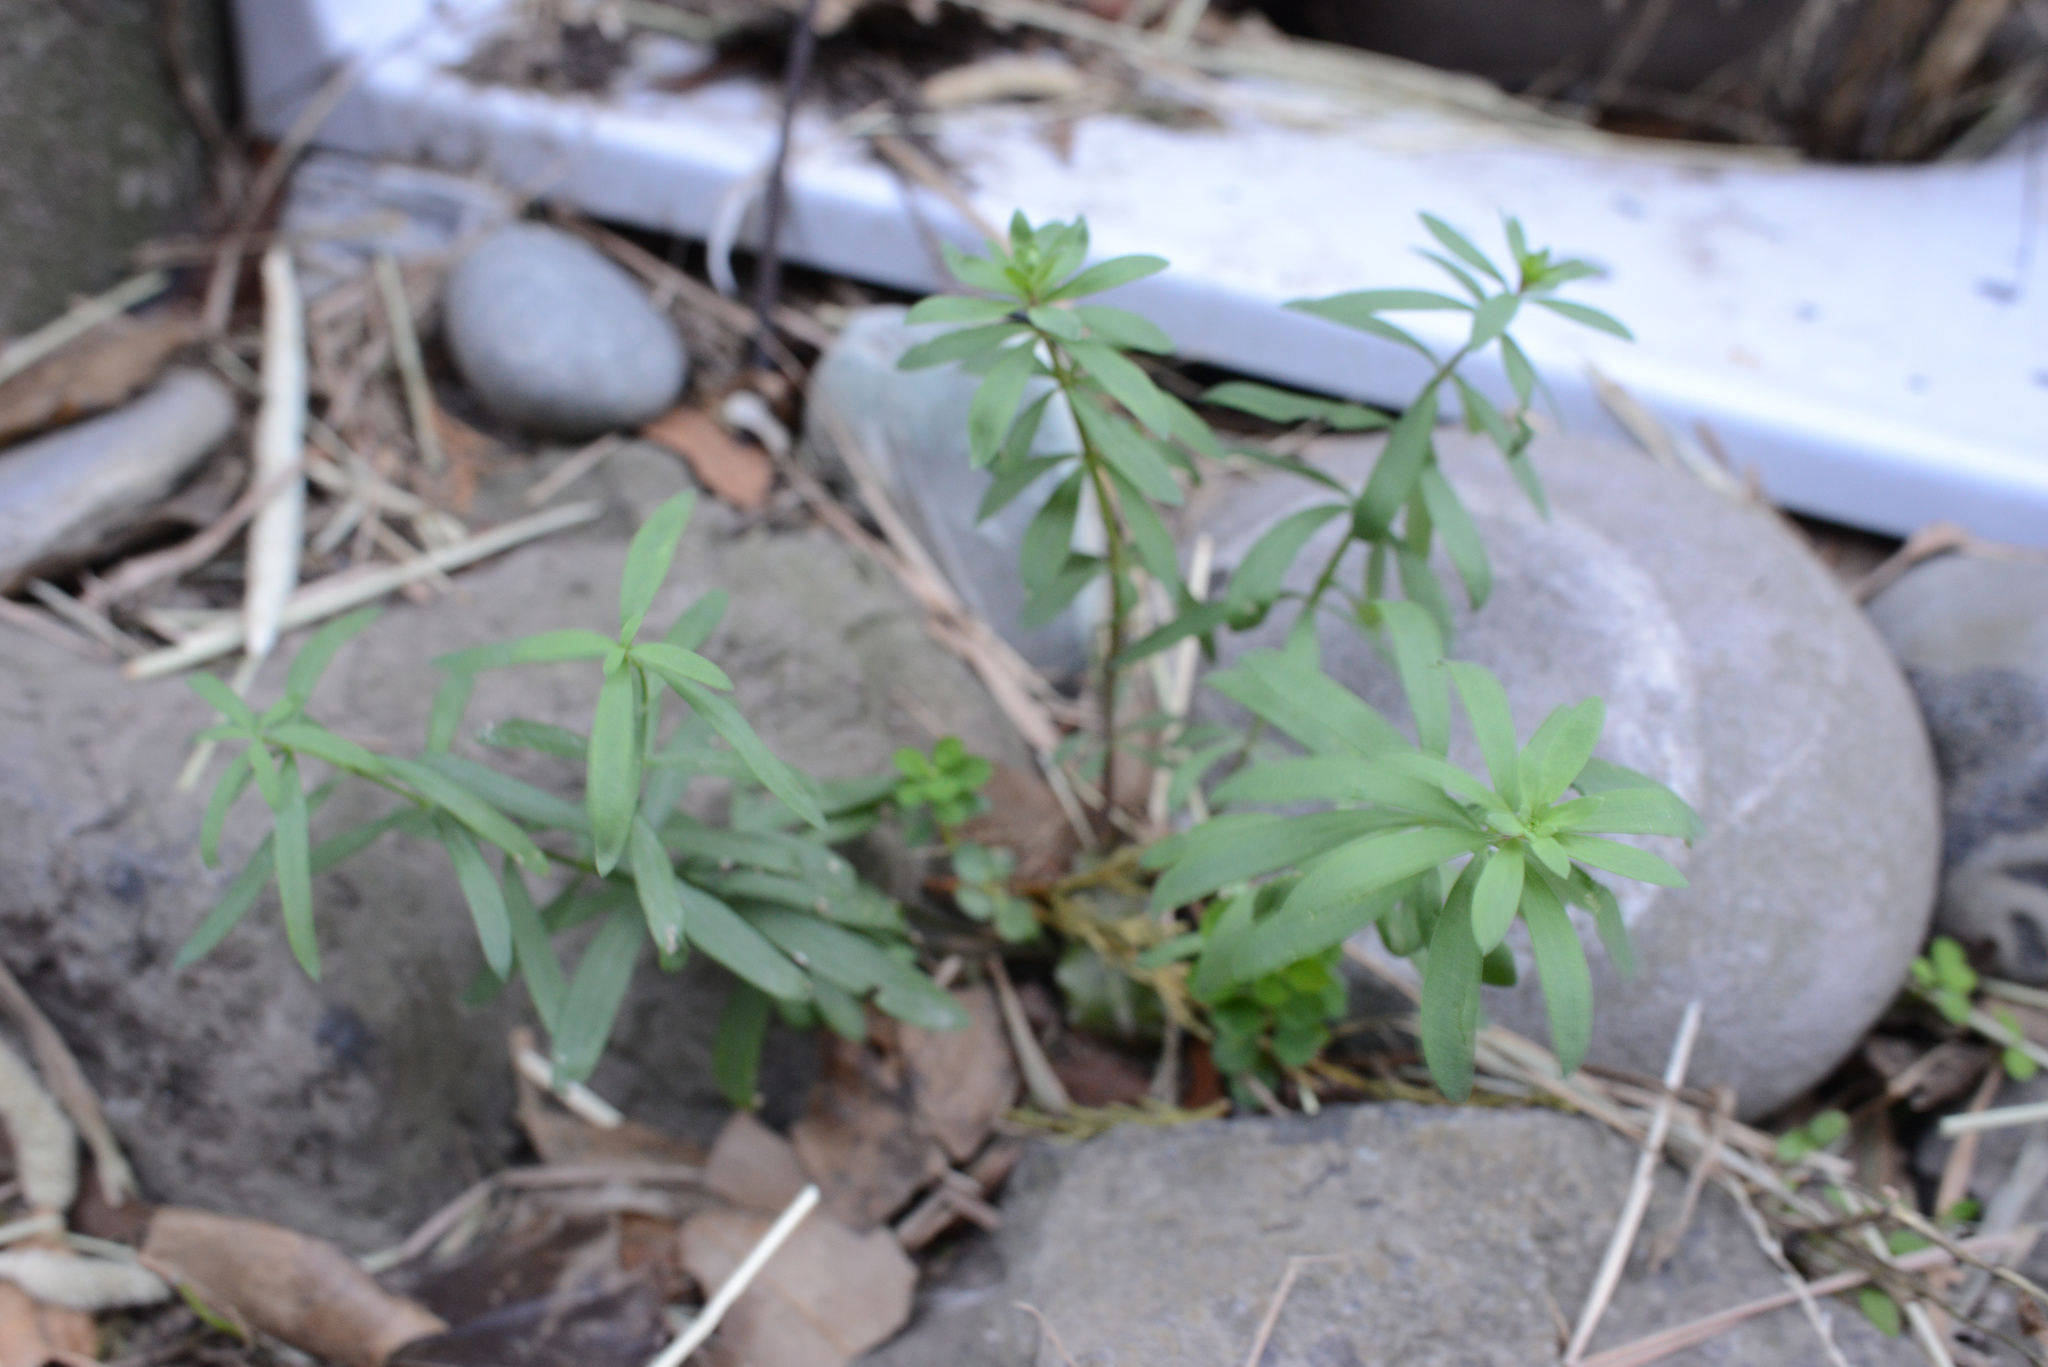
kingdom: Plantae
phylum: Tracheophyta
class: Magnoliopsida
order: Lamiales
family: Plantaginaceae
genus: Linaria
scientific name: Linaria purpurea
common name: Purple toadflax
